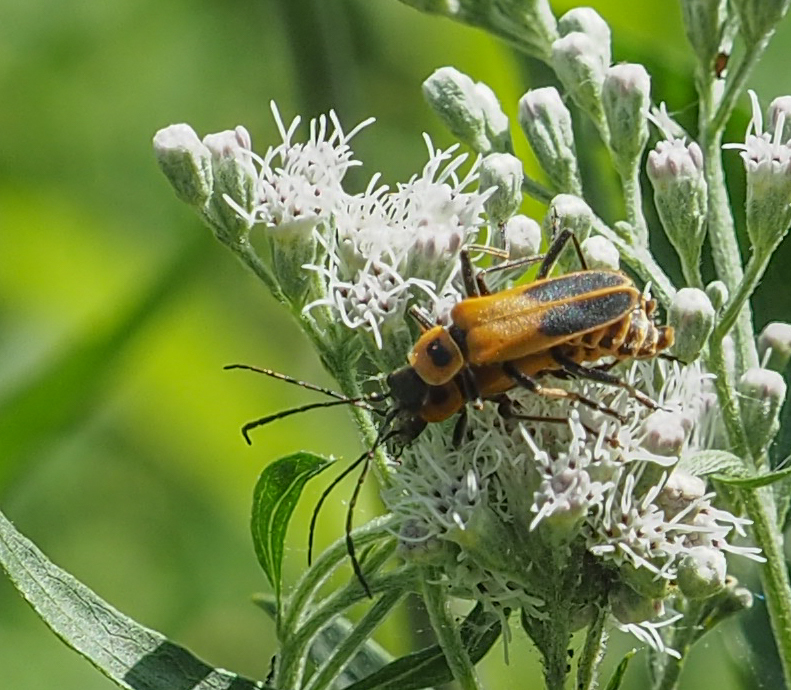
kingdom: Animalia
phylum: Arthropoda
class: Insecta
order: Coleoptera
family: Cantharidae
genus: Chauliognathus
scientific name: Chauliognathus pensylvanicus
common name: Goldenrod soldier beetle
